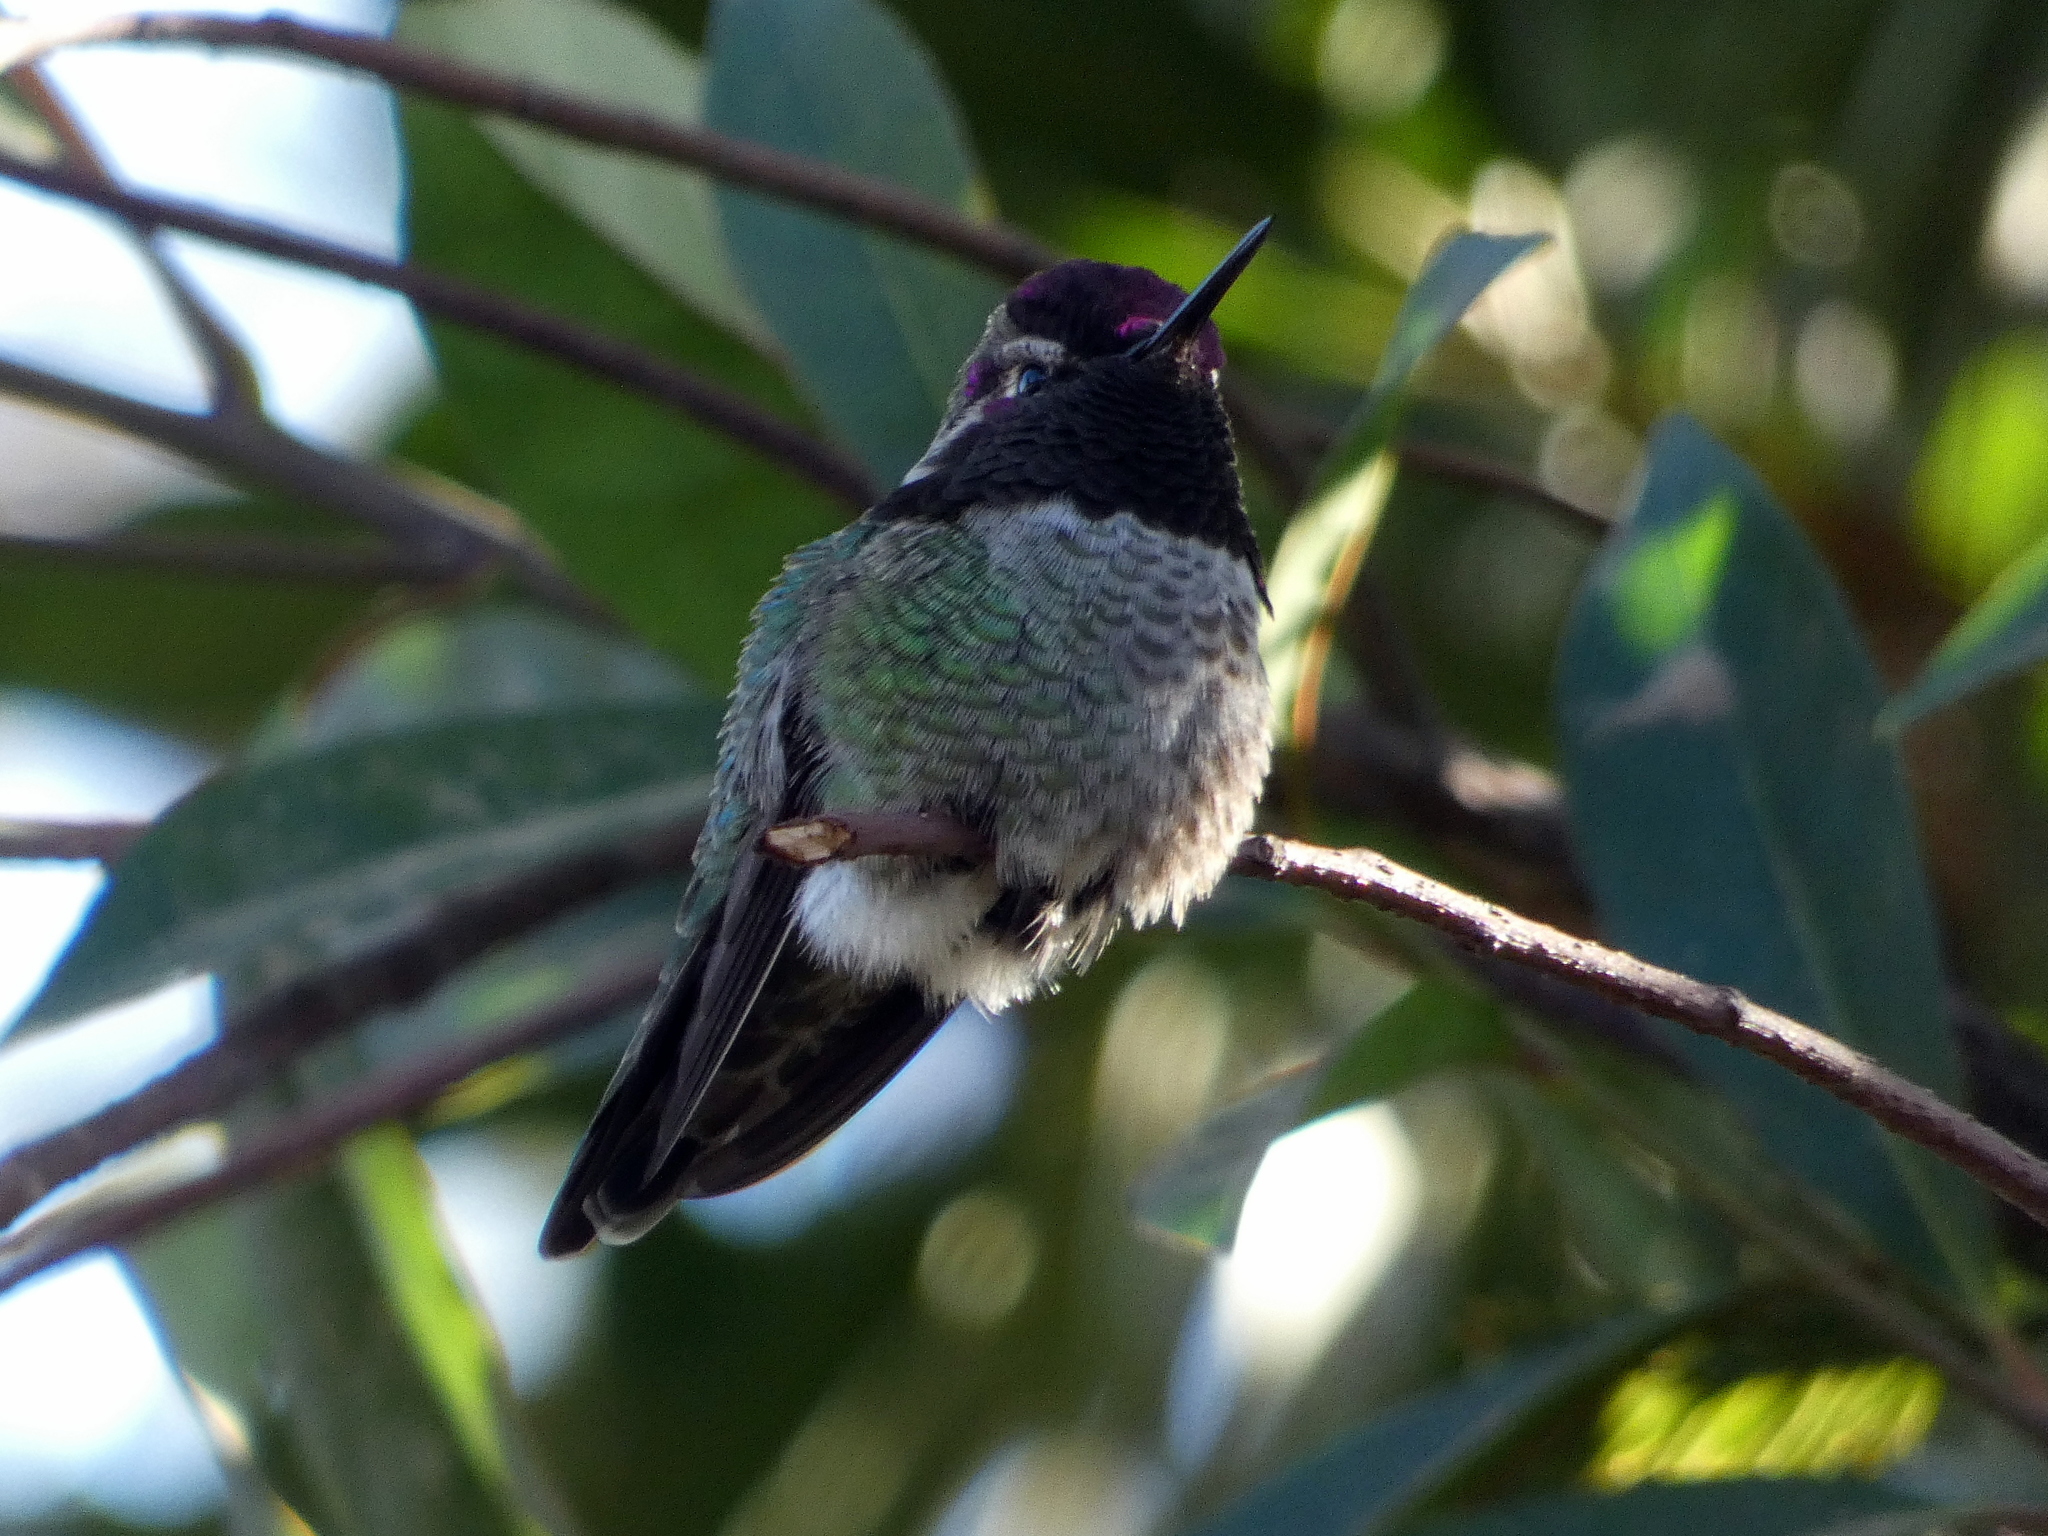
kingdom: Animalia
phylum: Chordata
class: Aves
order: Apodiformes
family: Trochilidae
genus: Calypte
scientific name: Calypte anna
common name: Anna's hummingbird
